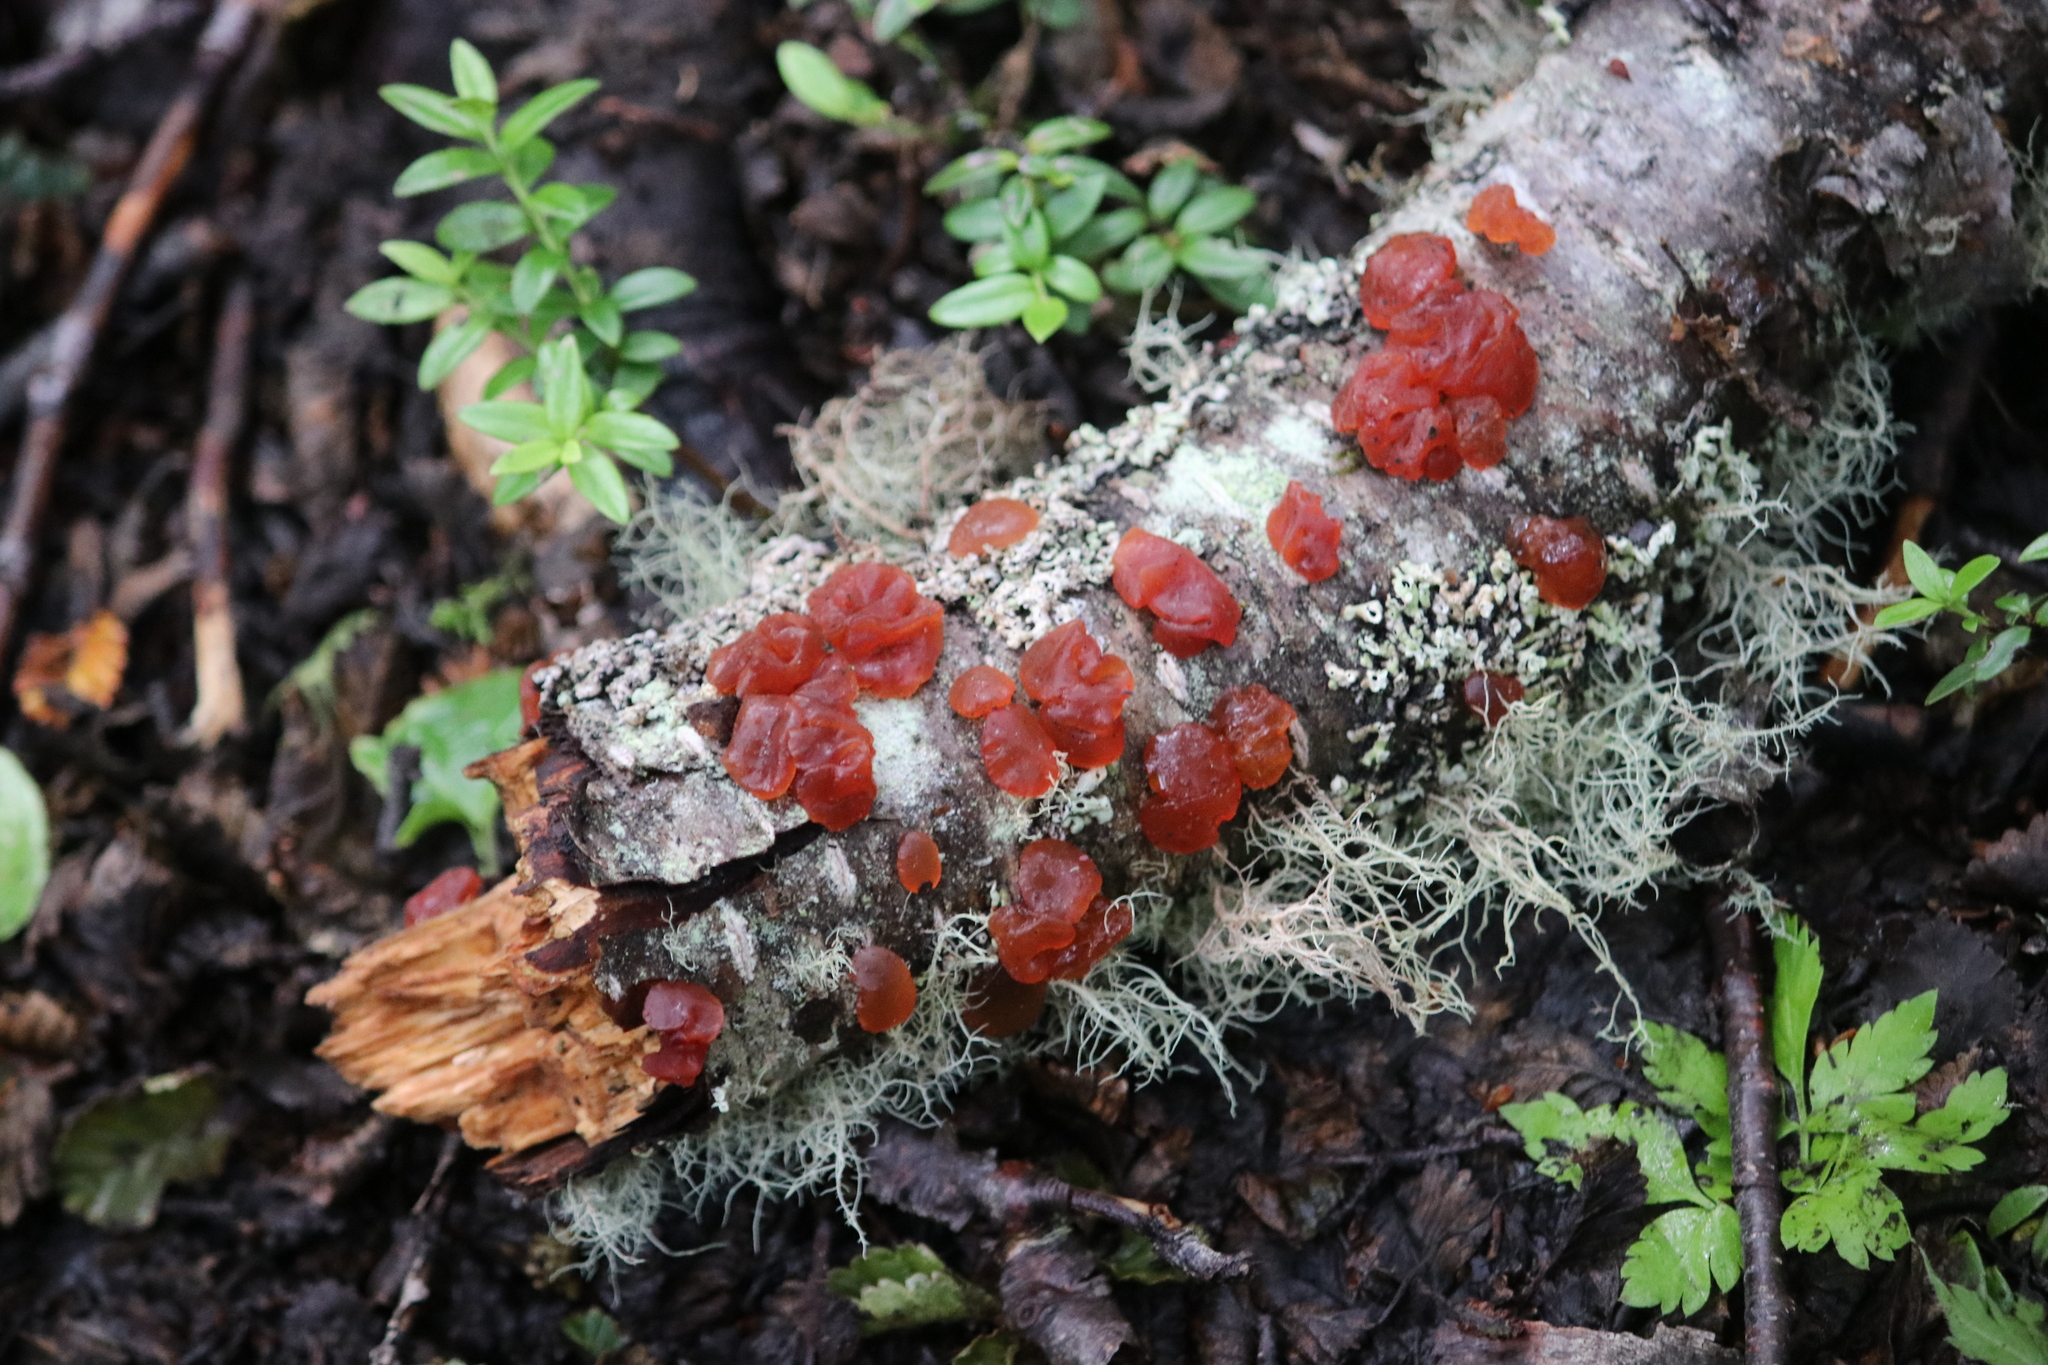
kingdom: Fungi
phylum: Basidiomycota
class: Dacrymycetes
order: Dacrymycetales
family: Dacrymycetaceae
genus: Guepiniopsis
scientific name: Guepiniopsis alpina
